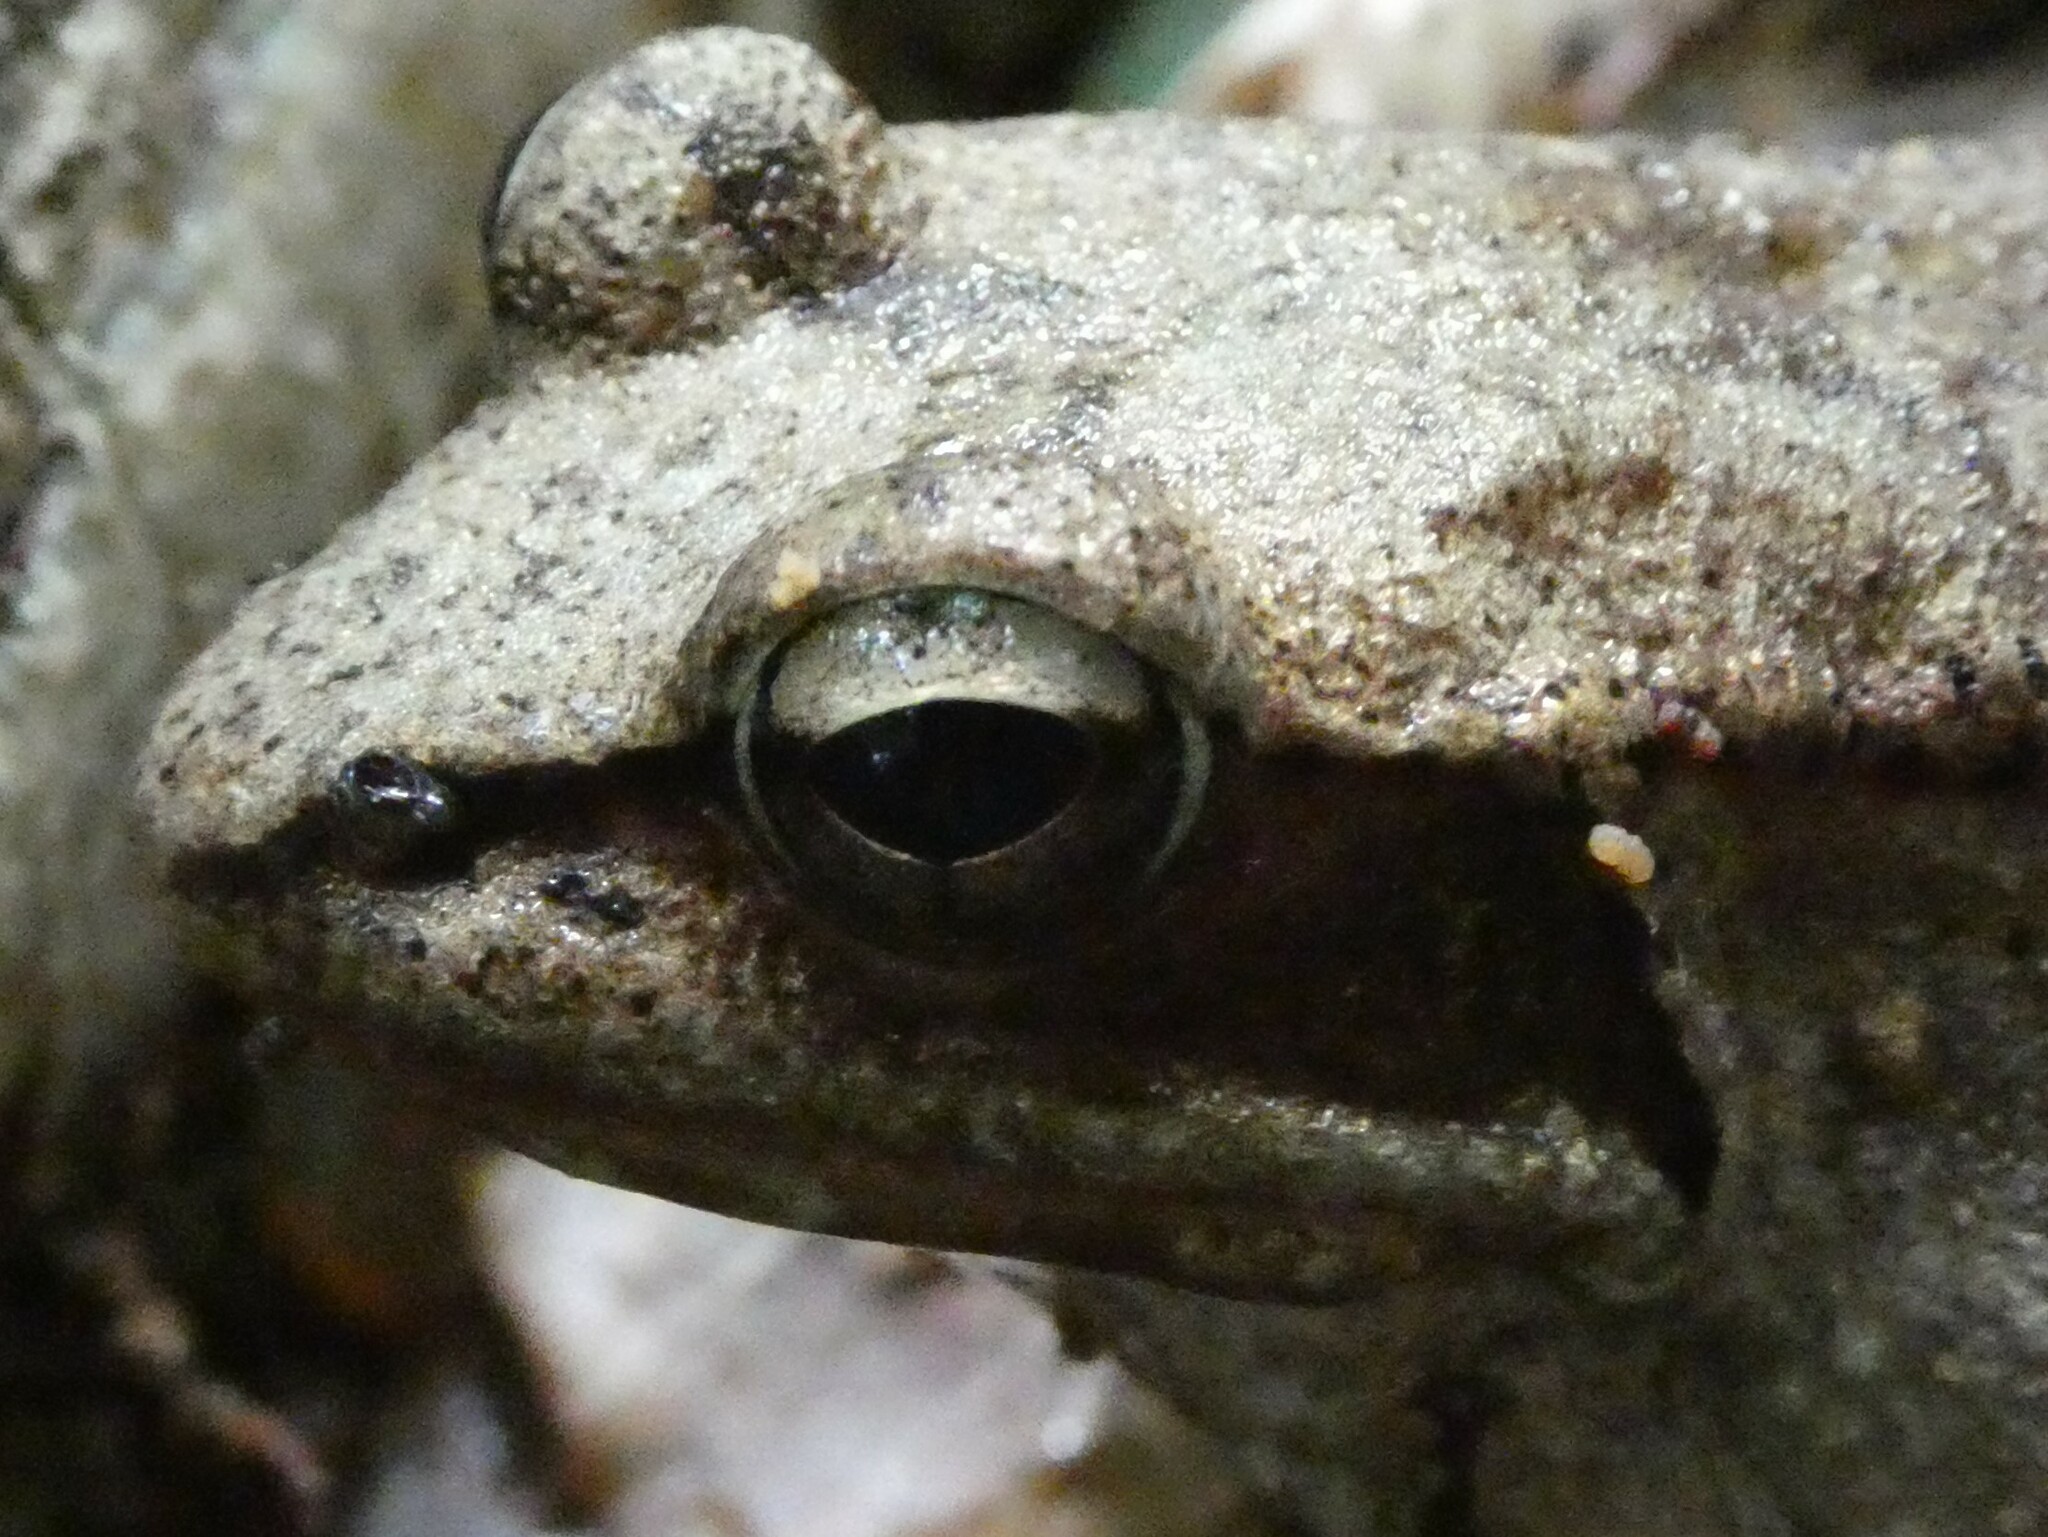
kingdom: Animalia
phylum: Chordata
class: Amphibia
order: Anura
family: Ranidae
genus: Lithobates
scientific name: Lithobates sylvaticus
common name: Wood frog
